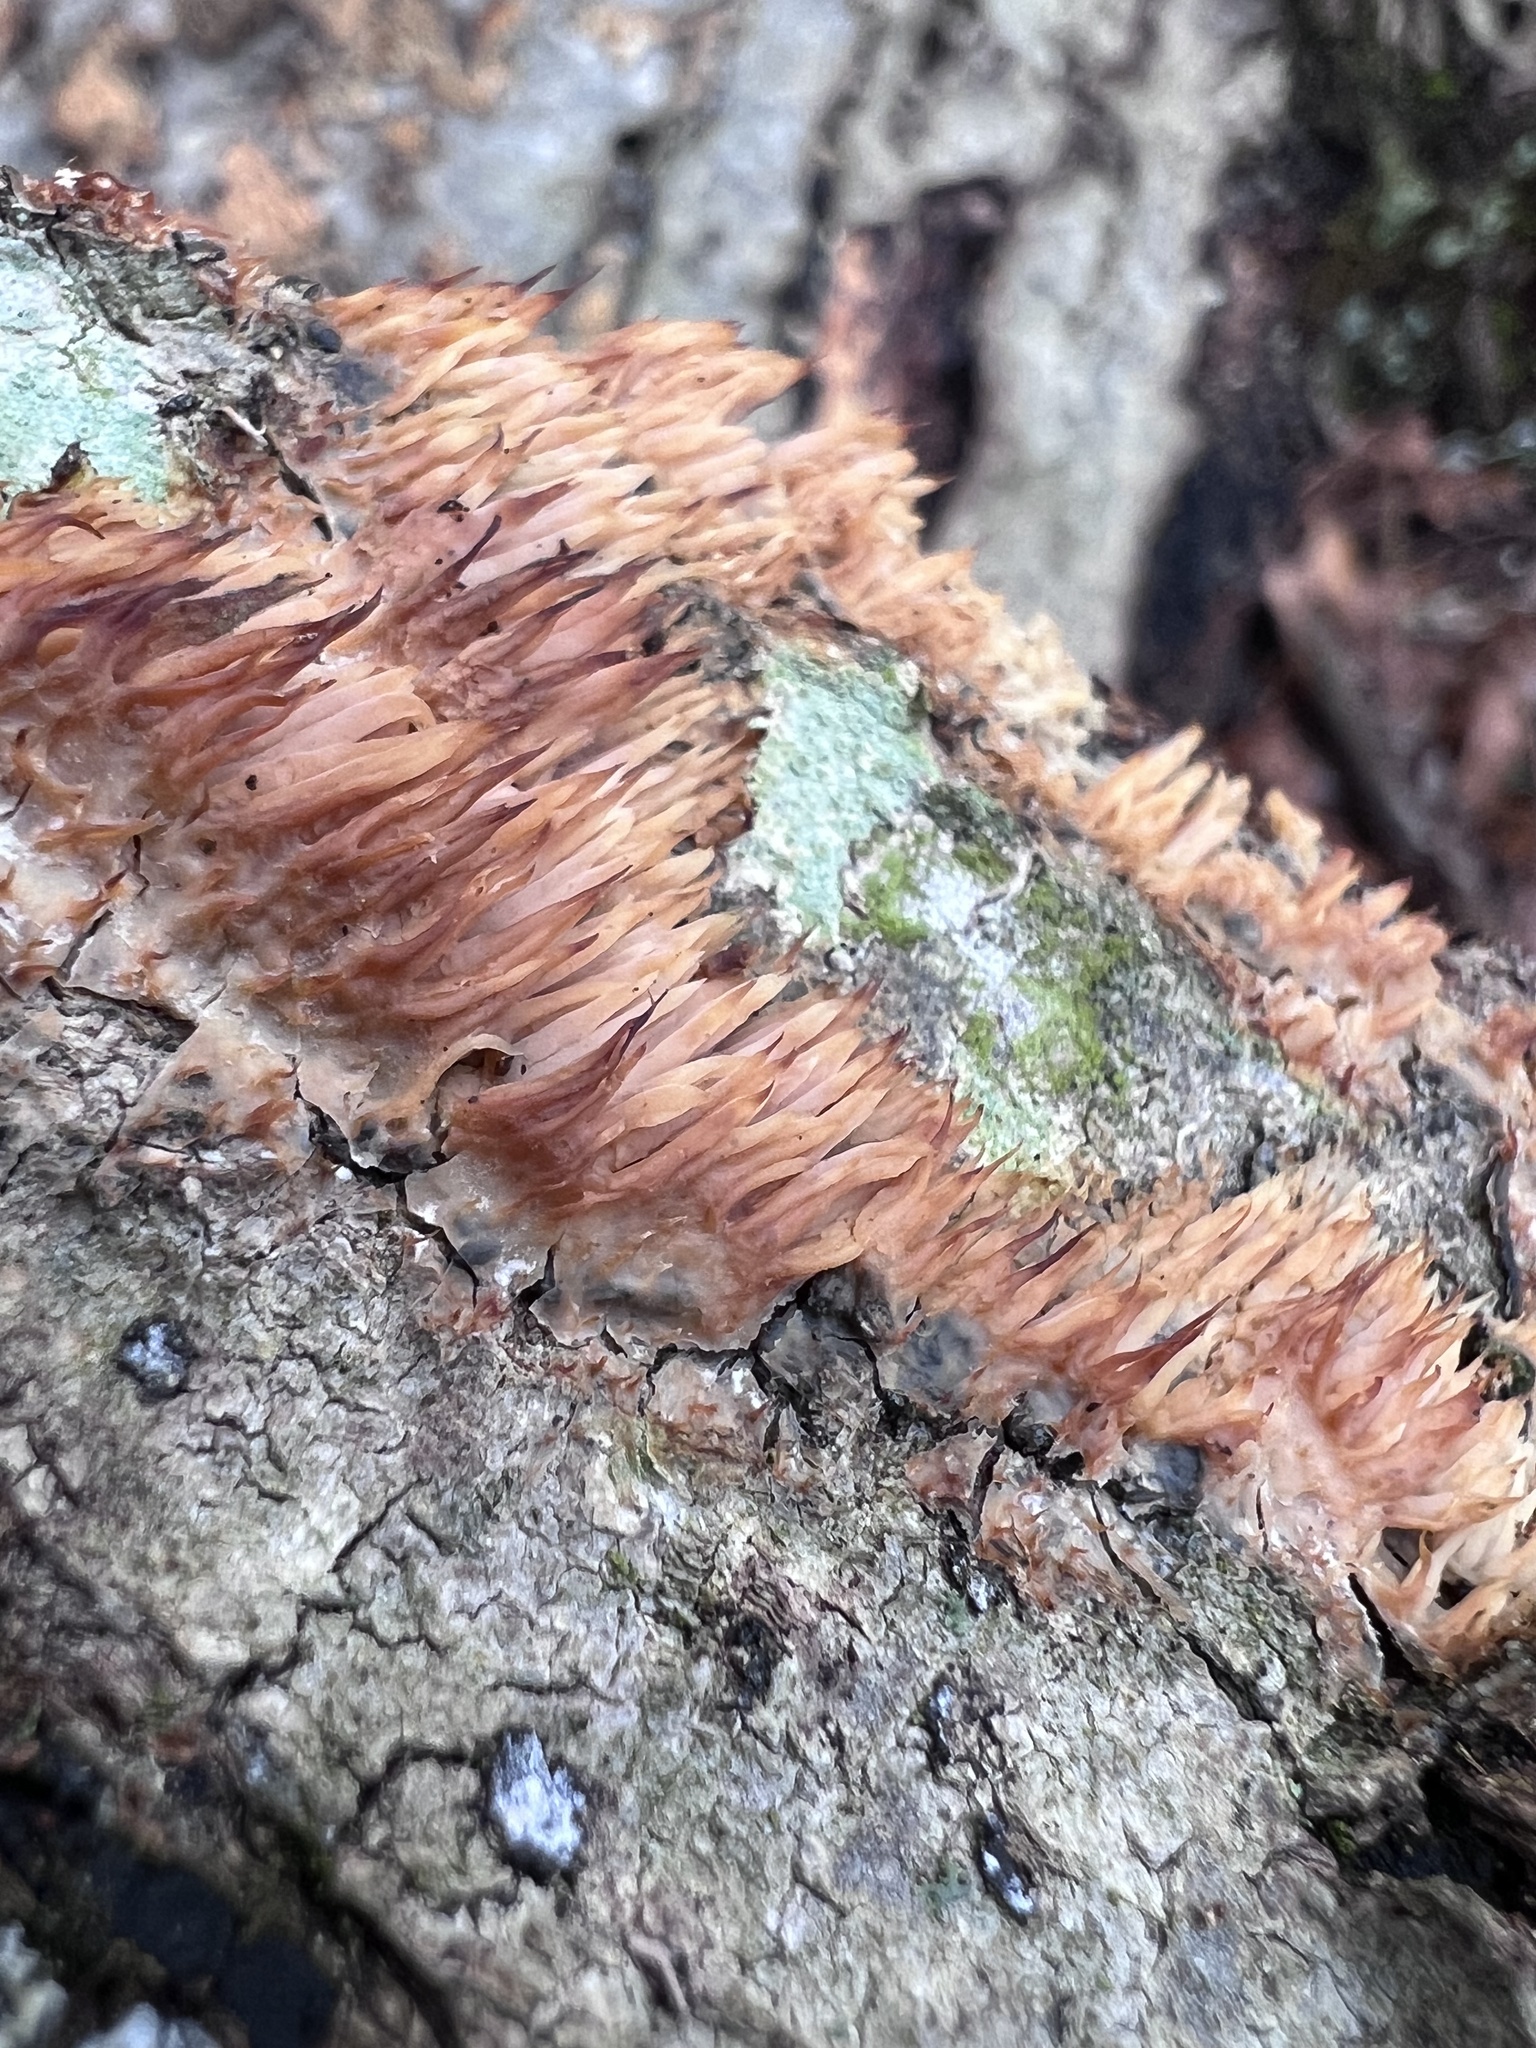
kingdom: Fungi
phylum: Basidiomycota
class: Agaricomycetes
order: Agaricales
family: Radulomycetaceae
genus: Radulomyces
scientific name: Radulomyces copelandii
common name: Asian beauty
